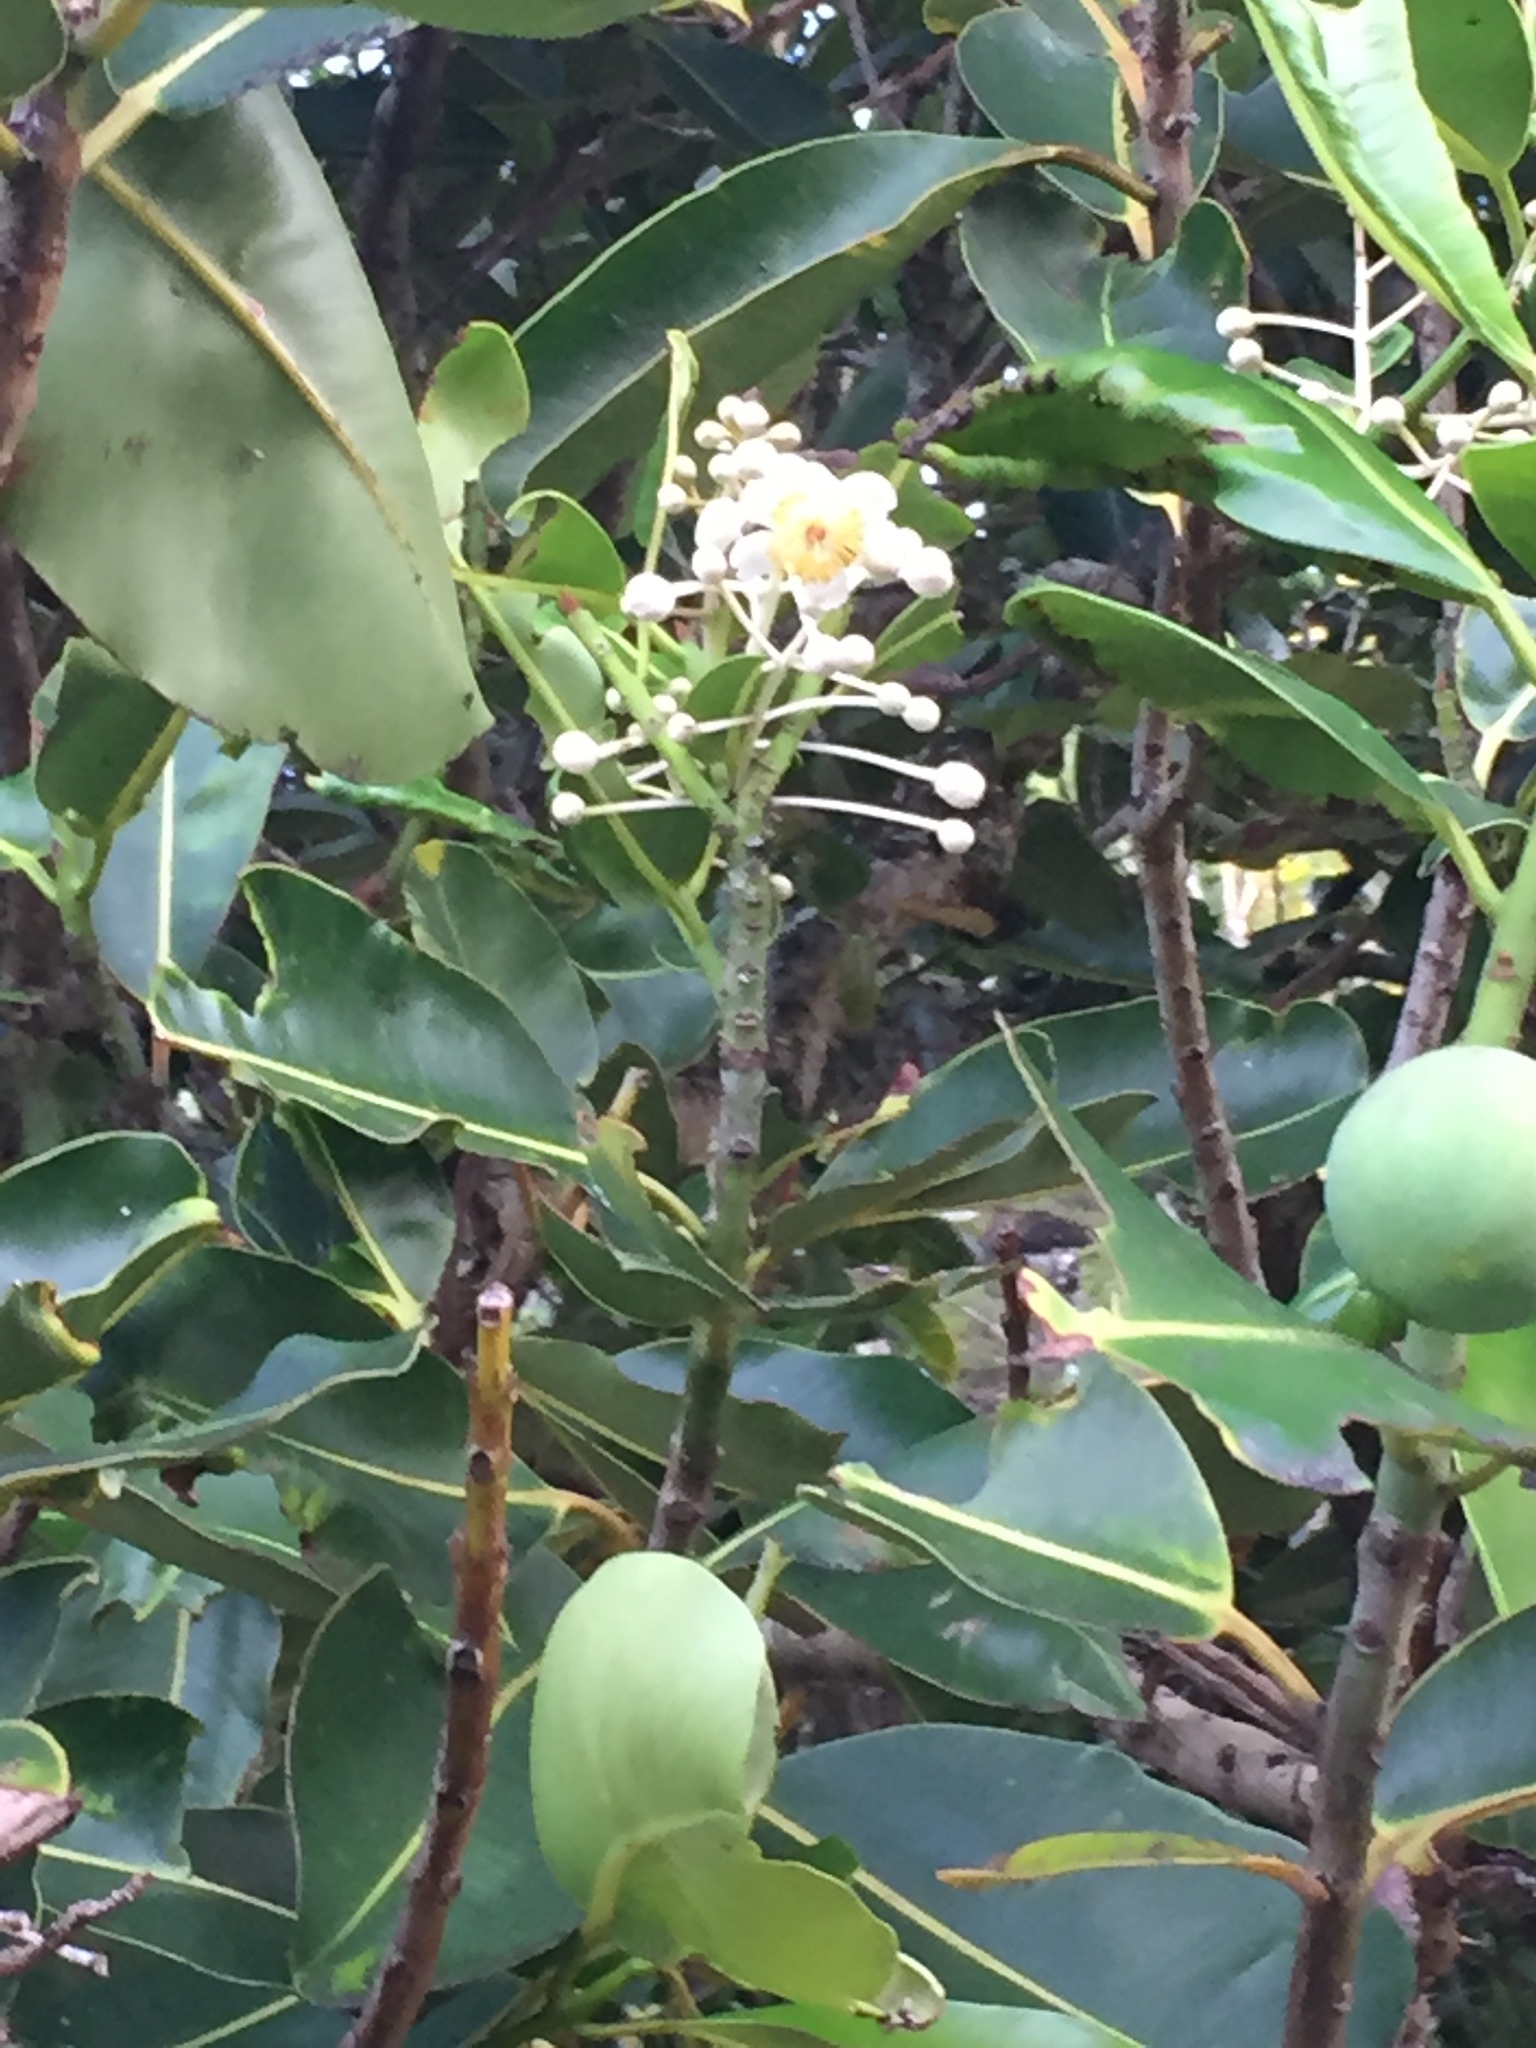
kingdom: Plantae
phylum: Tracheophyta
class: Magnoliopsida
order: Malpighiales
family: Calophyllaceae
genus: Calophyllum
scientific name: Calophyllum inophyllum
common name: Alexandrian laurel
